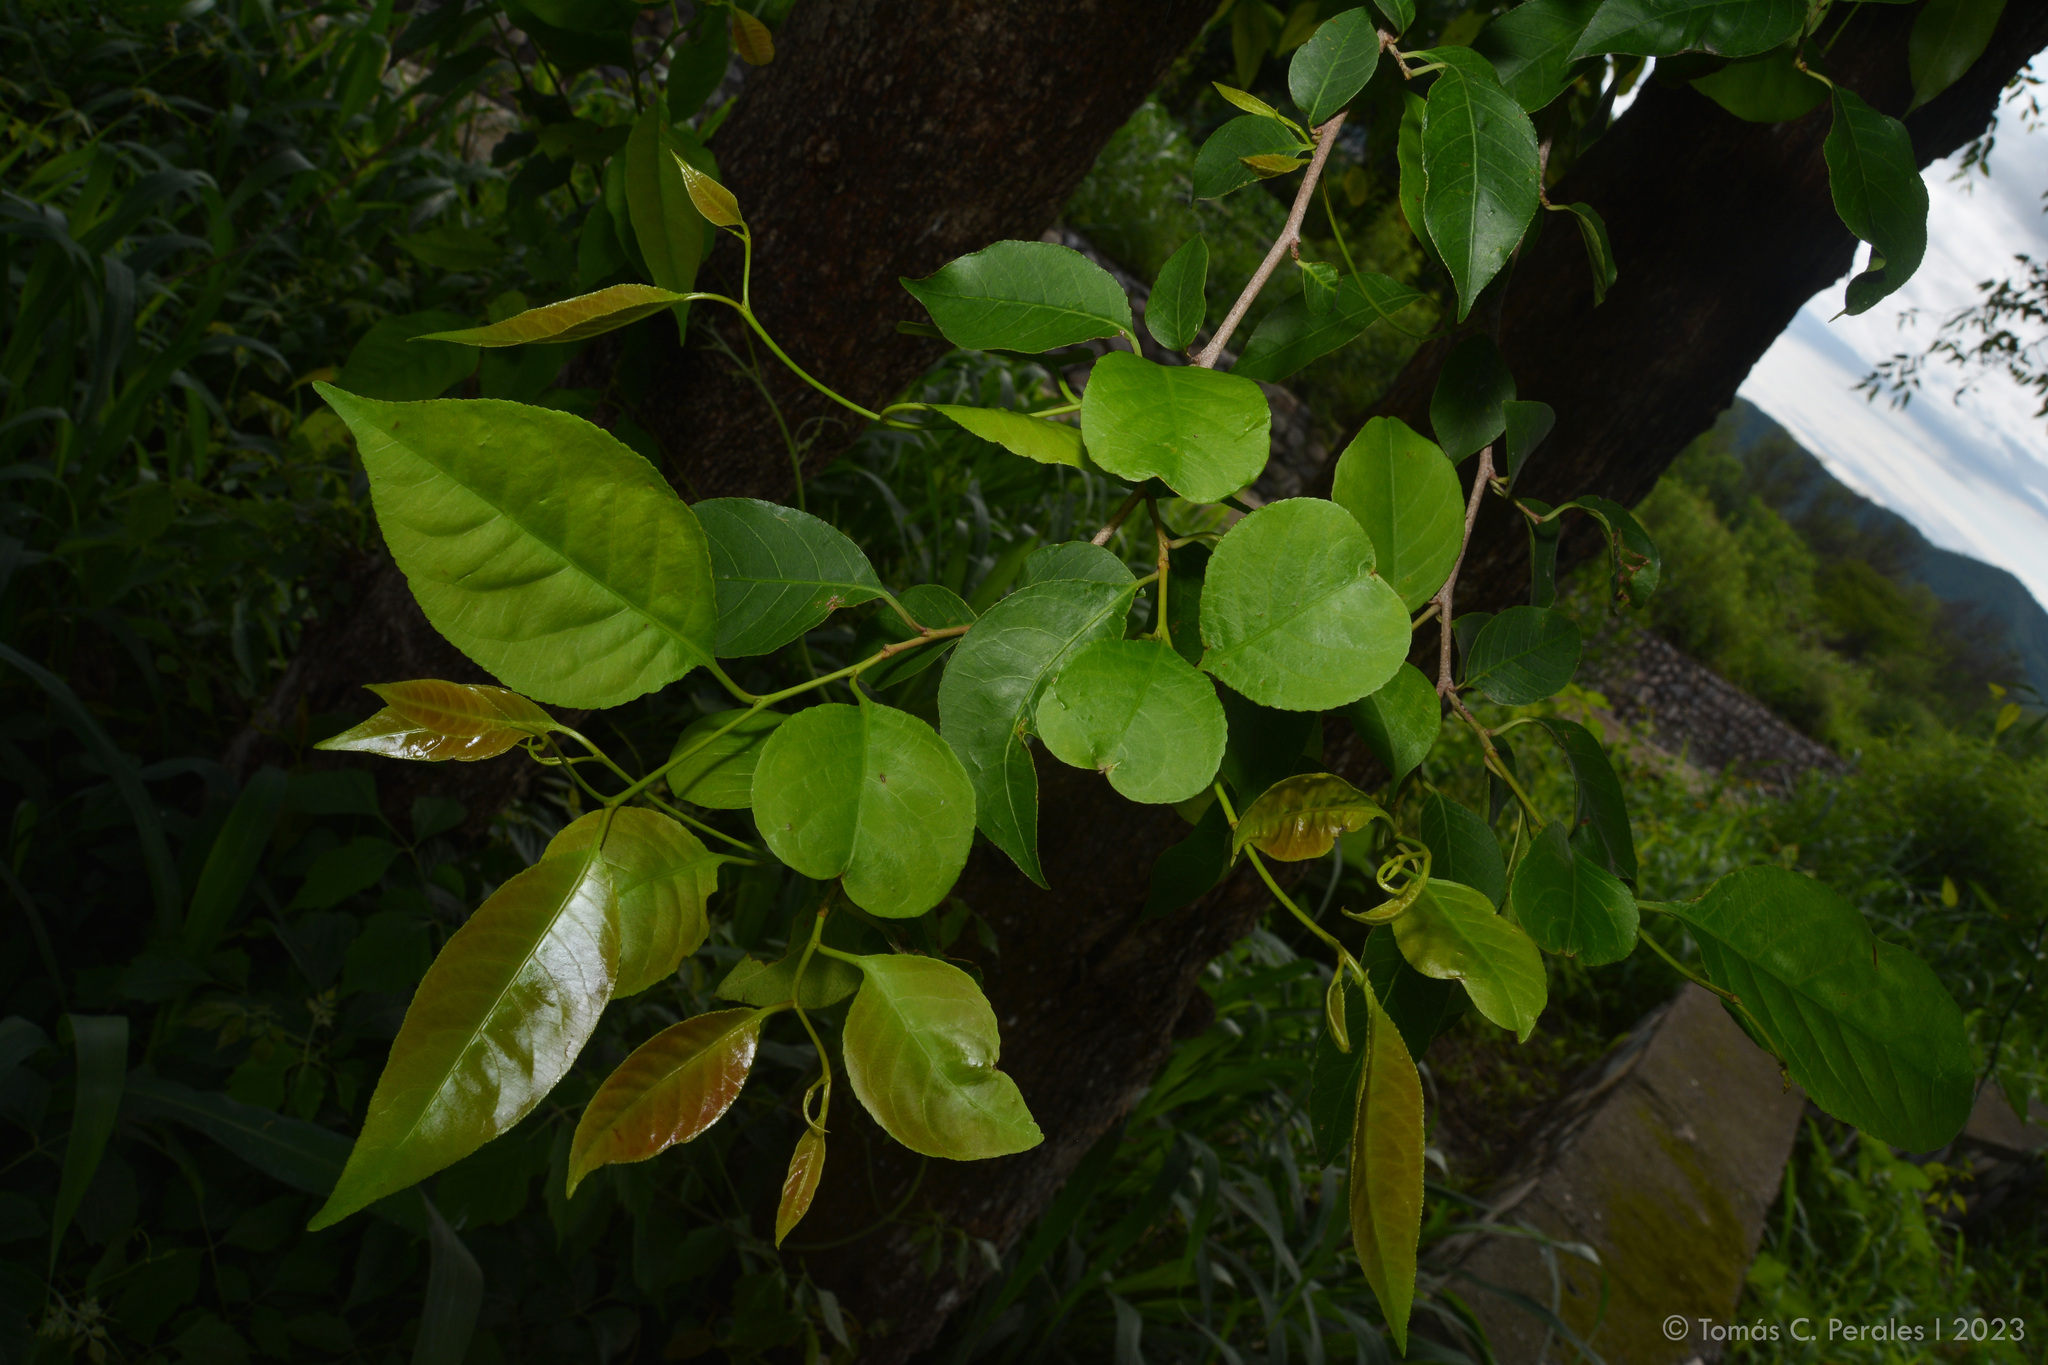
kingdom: Plantae
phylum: Tracheophyta
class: Magnoliopsida
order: Malpighiales
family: Euphorbiaceae
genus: Sebastiania
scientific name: Sebastiania brasiliensis
